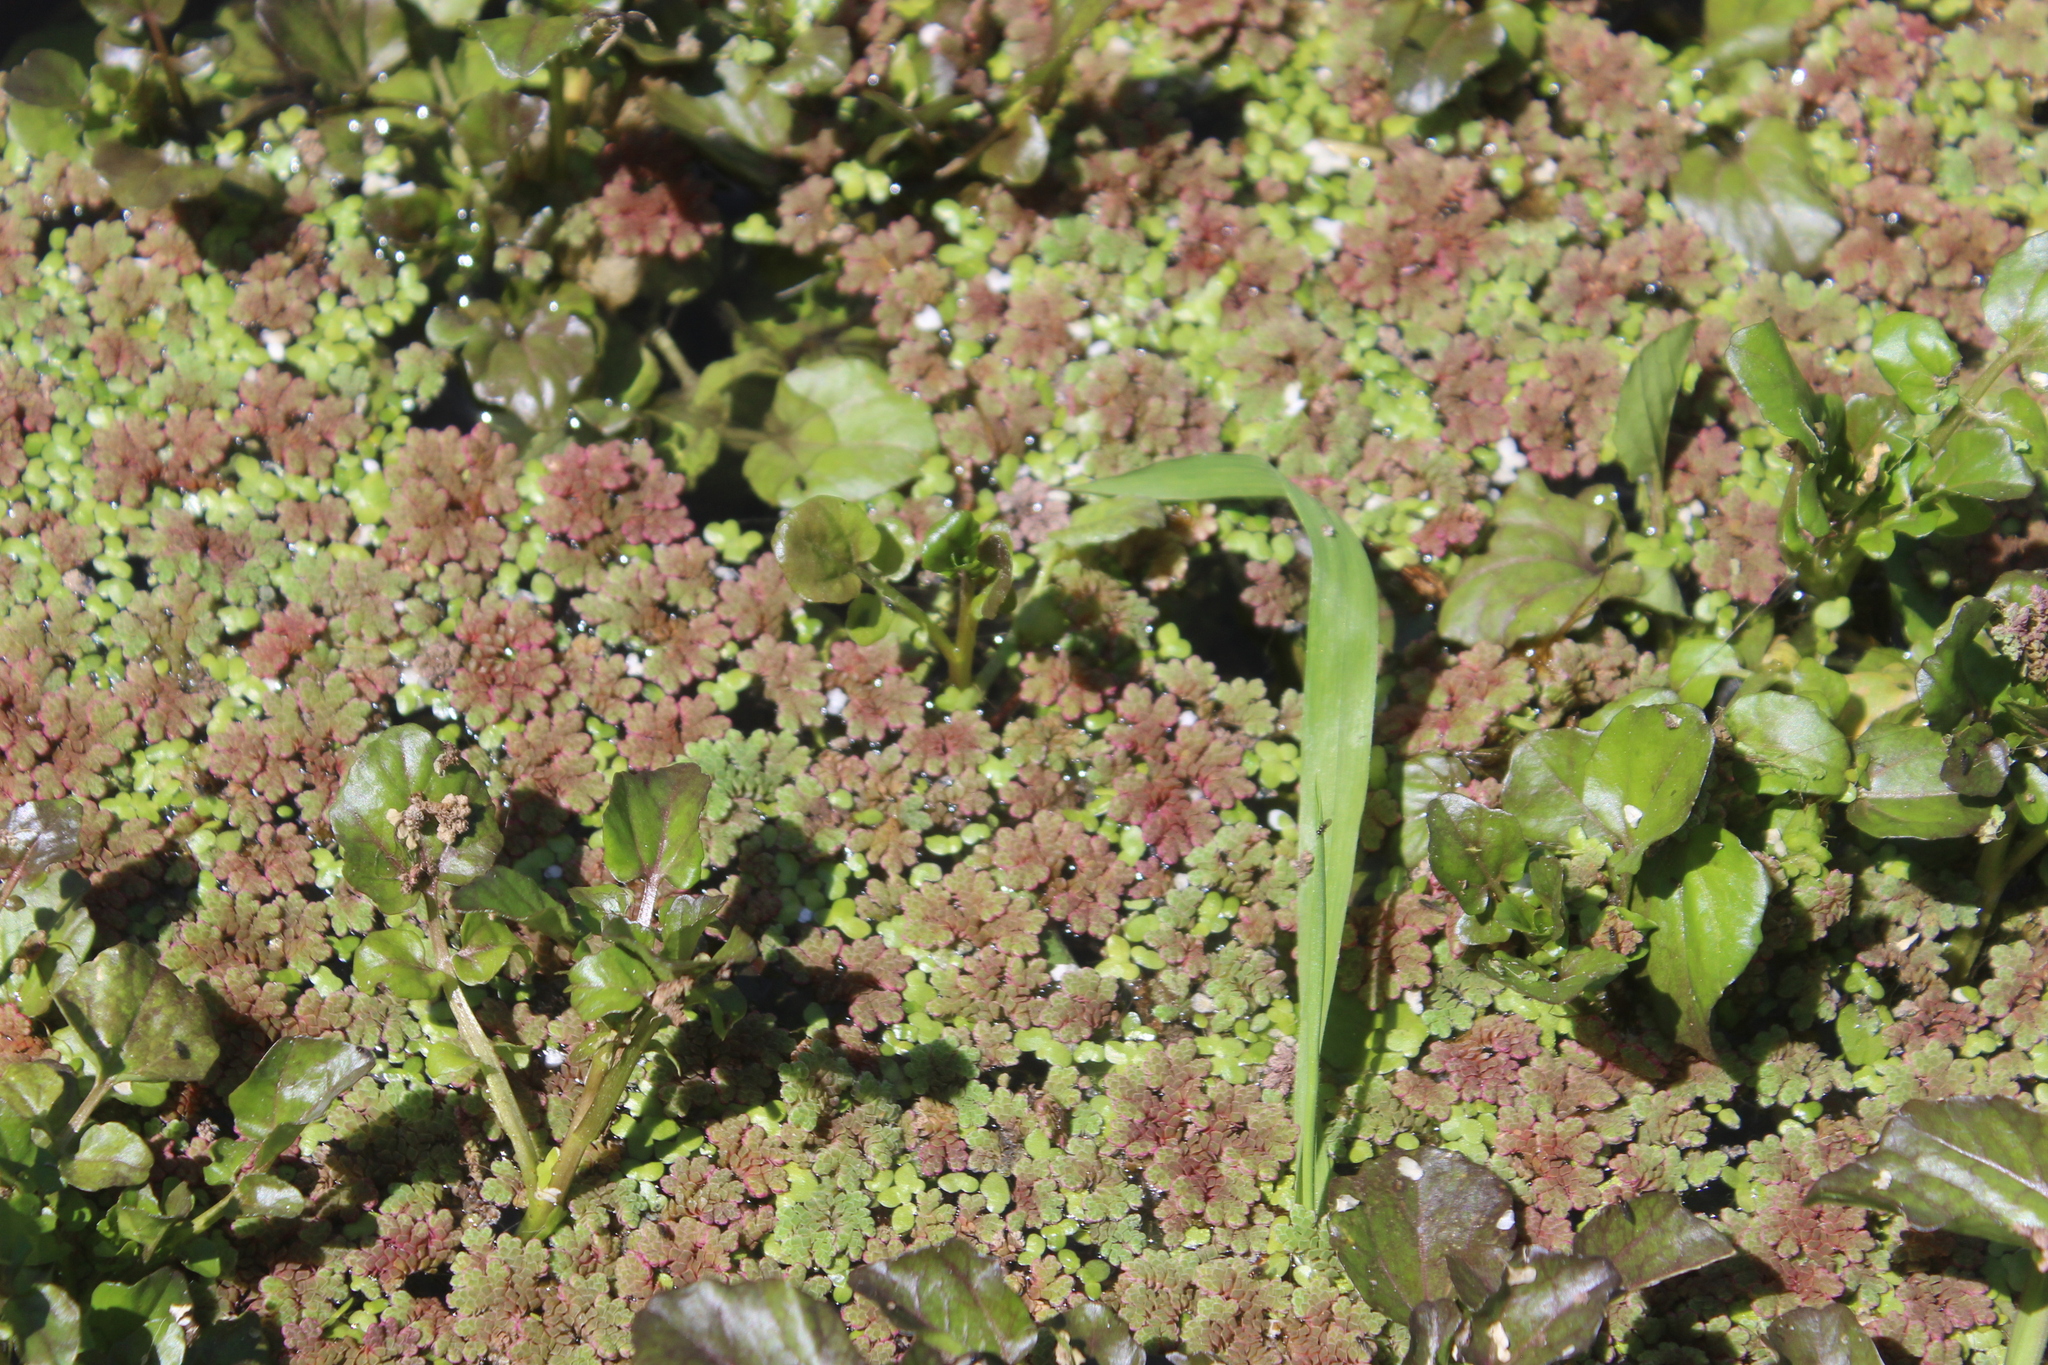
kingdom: Plantae
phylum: Tracheophyta
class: Polypodiopsida
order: Salviniales
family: Salviniaceae
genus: Azolla
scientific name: Azolla rubra
